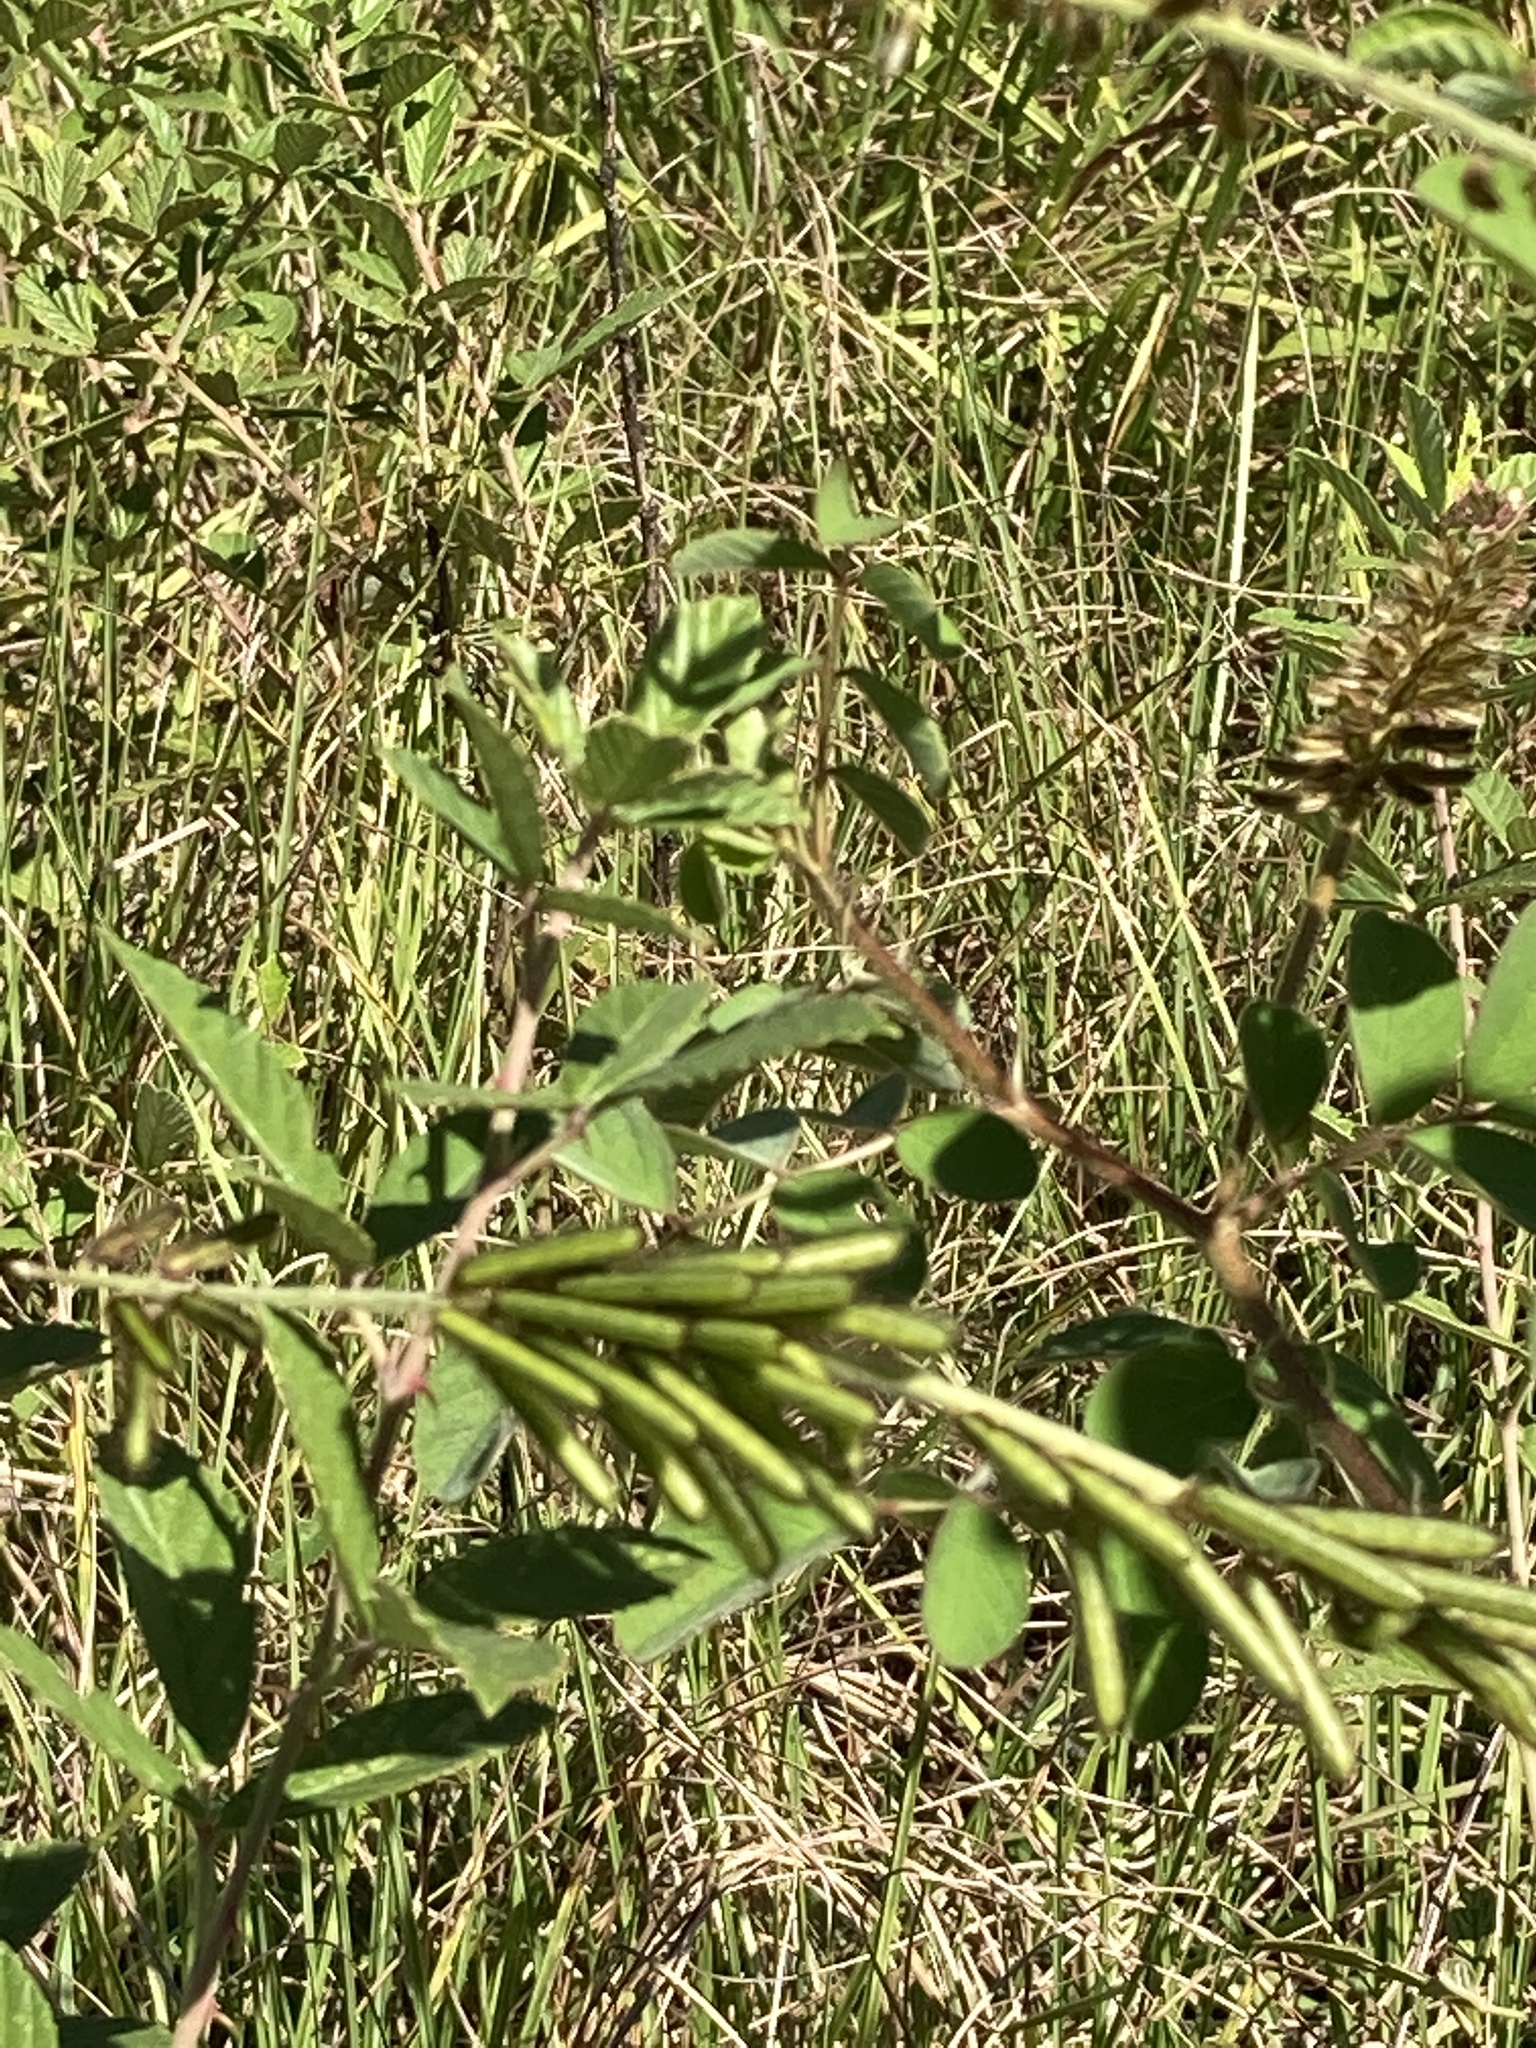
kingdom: Plantae
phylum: Tracheophyta
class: Magnoliopsida
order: Fabales
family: Fabaceae
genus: Indigofera
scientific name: Indigofera hirsuta
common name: Hairy indigo
